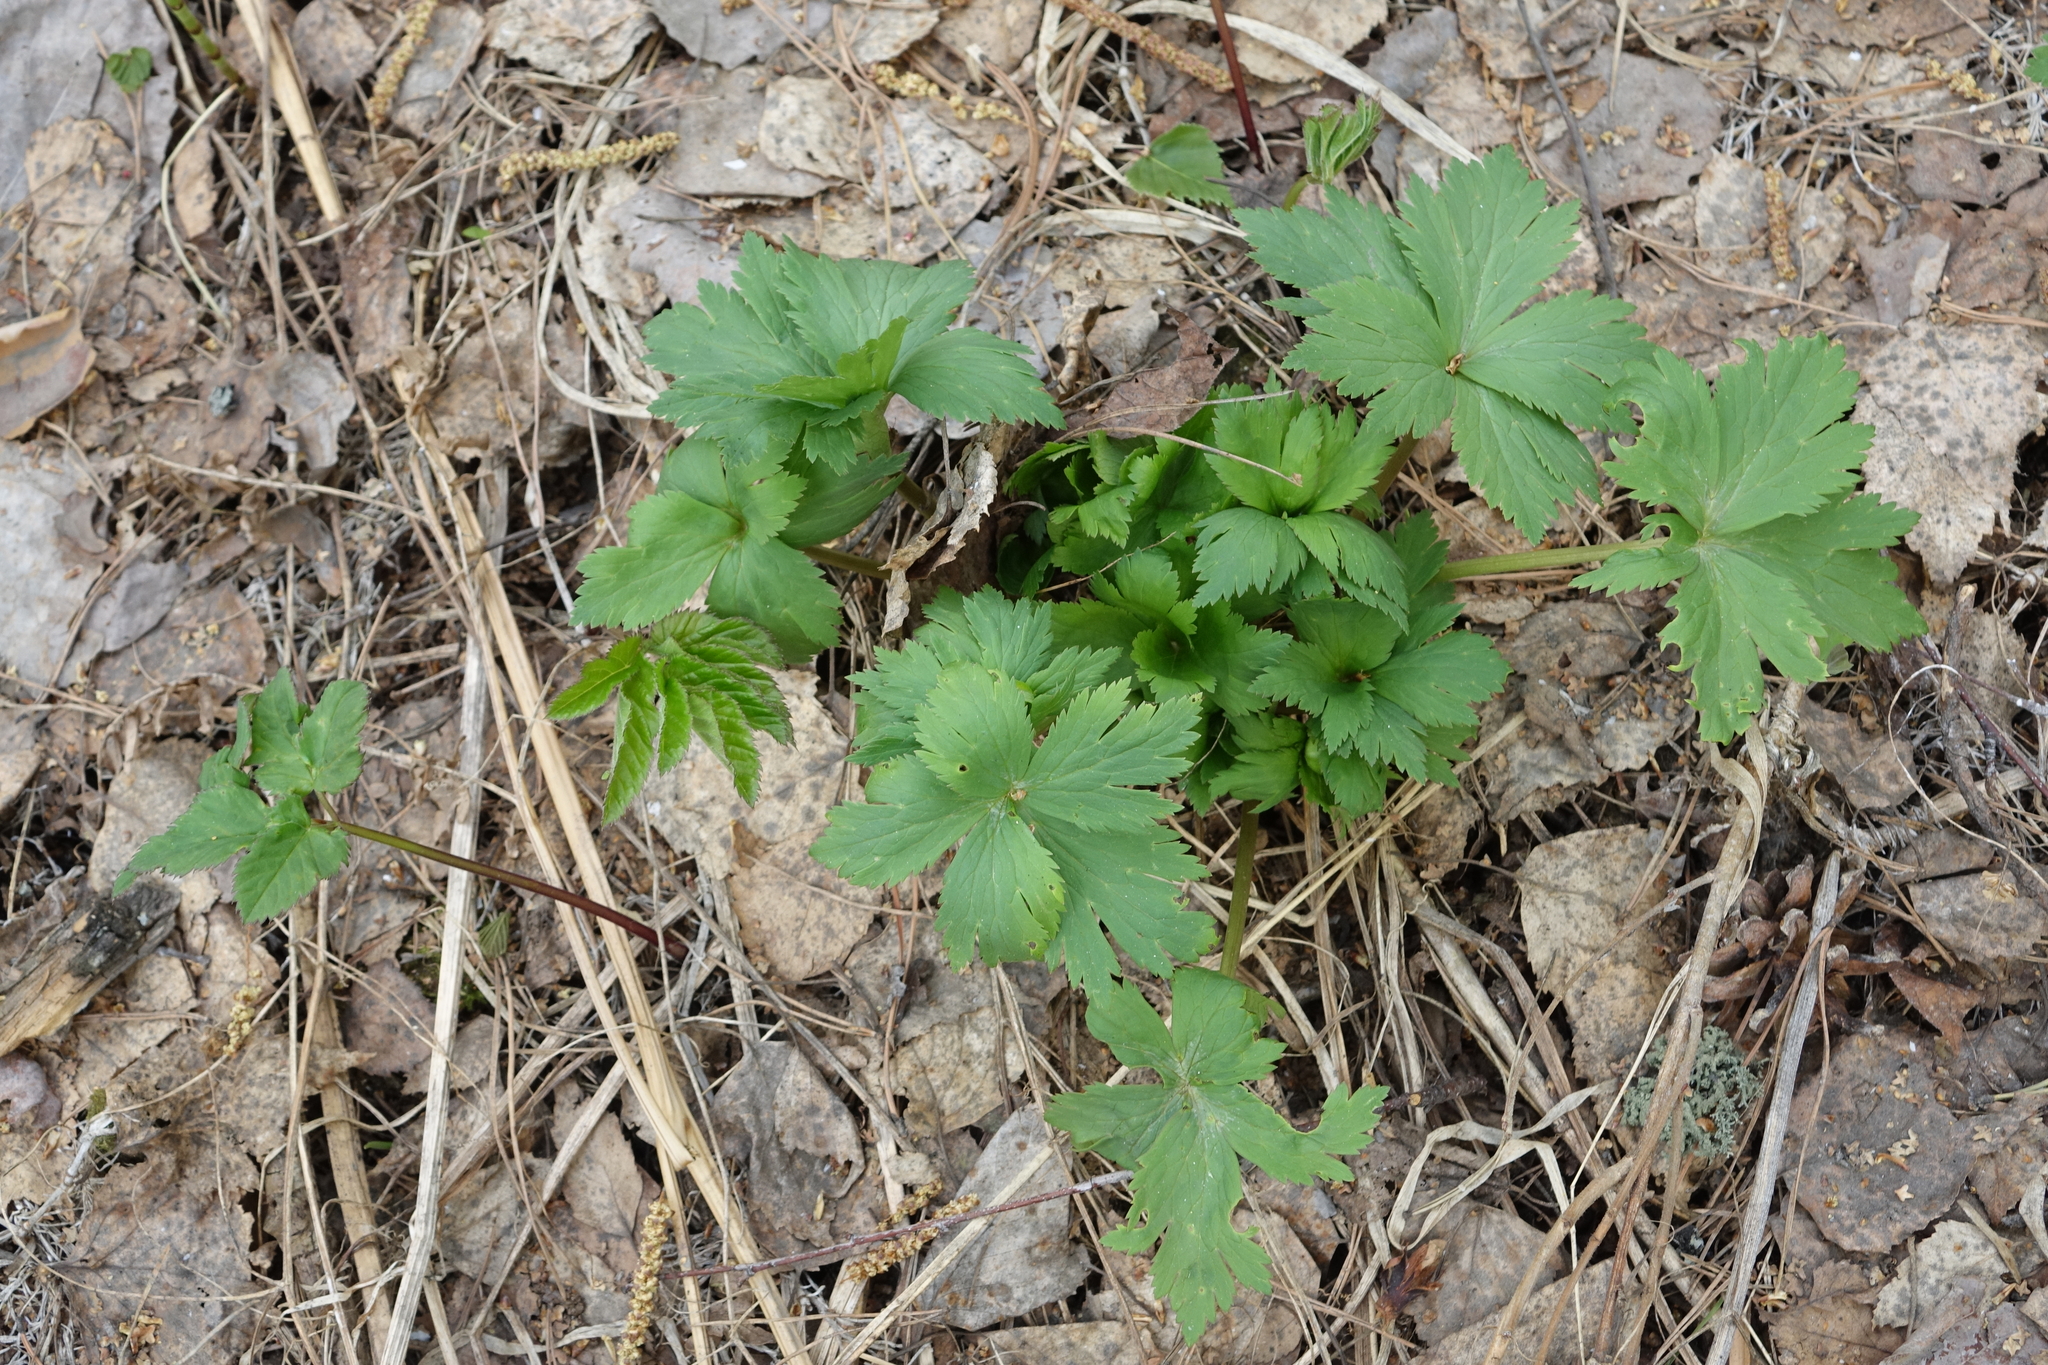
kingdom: Plantae
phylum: Tracheophyta
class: Magnoliopsida
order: Ranunculales
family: Ranunculaceae
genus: Trollius
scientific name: Trollius asiaticus
